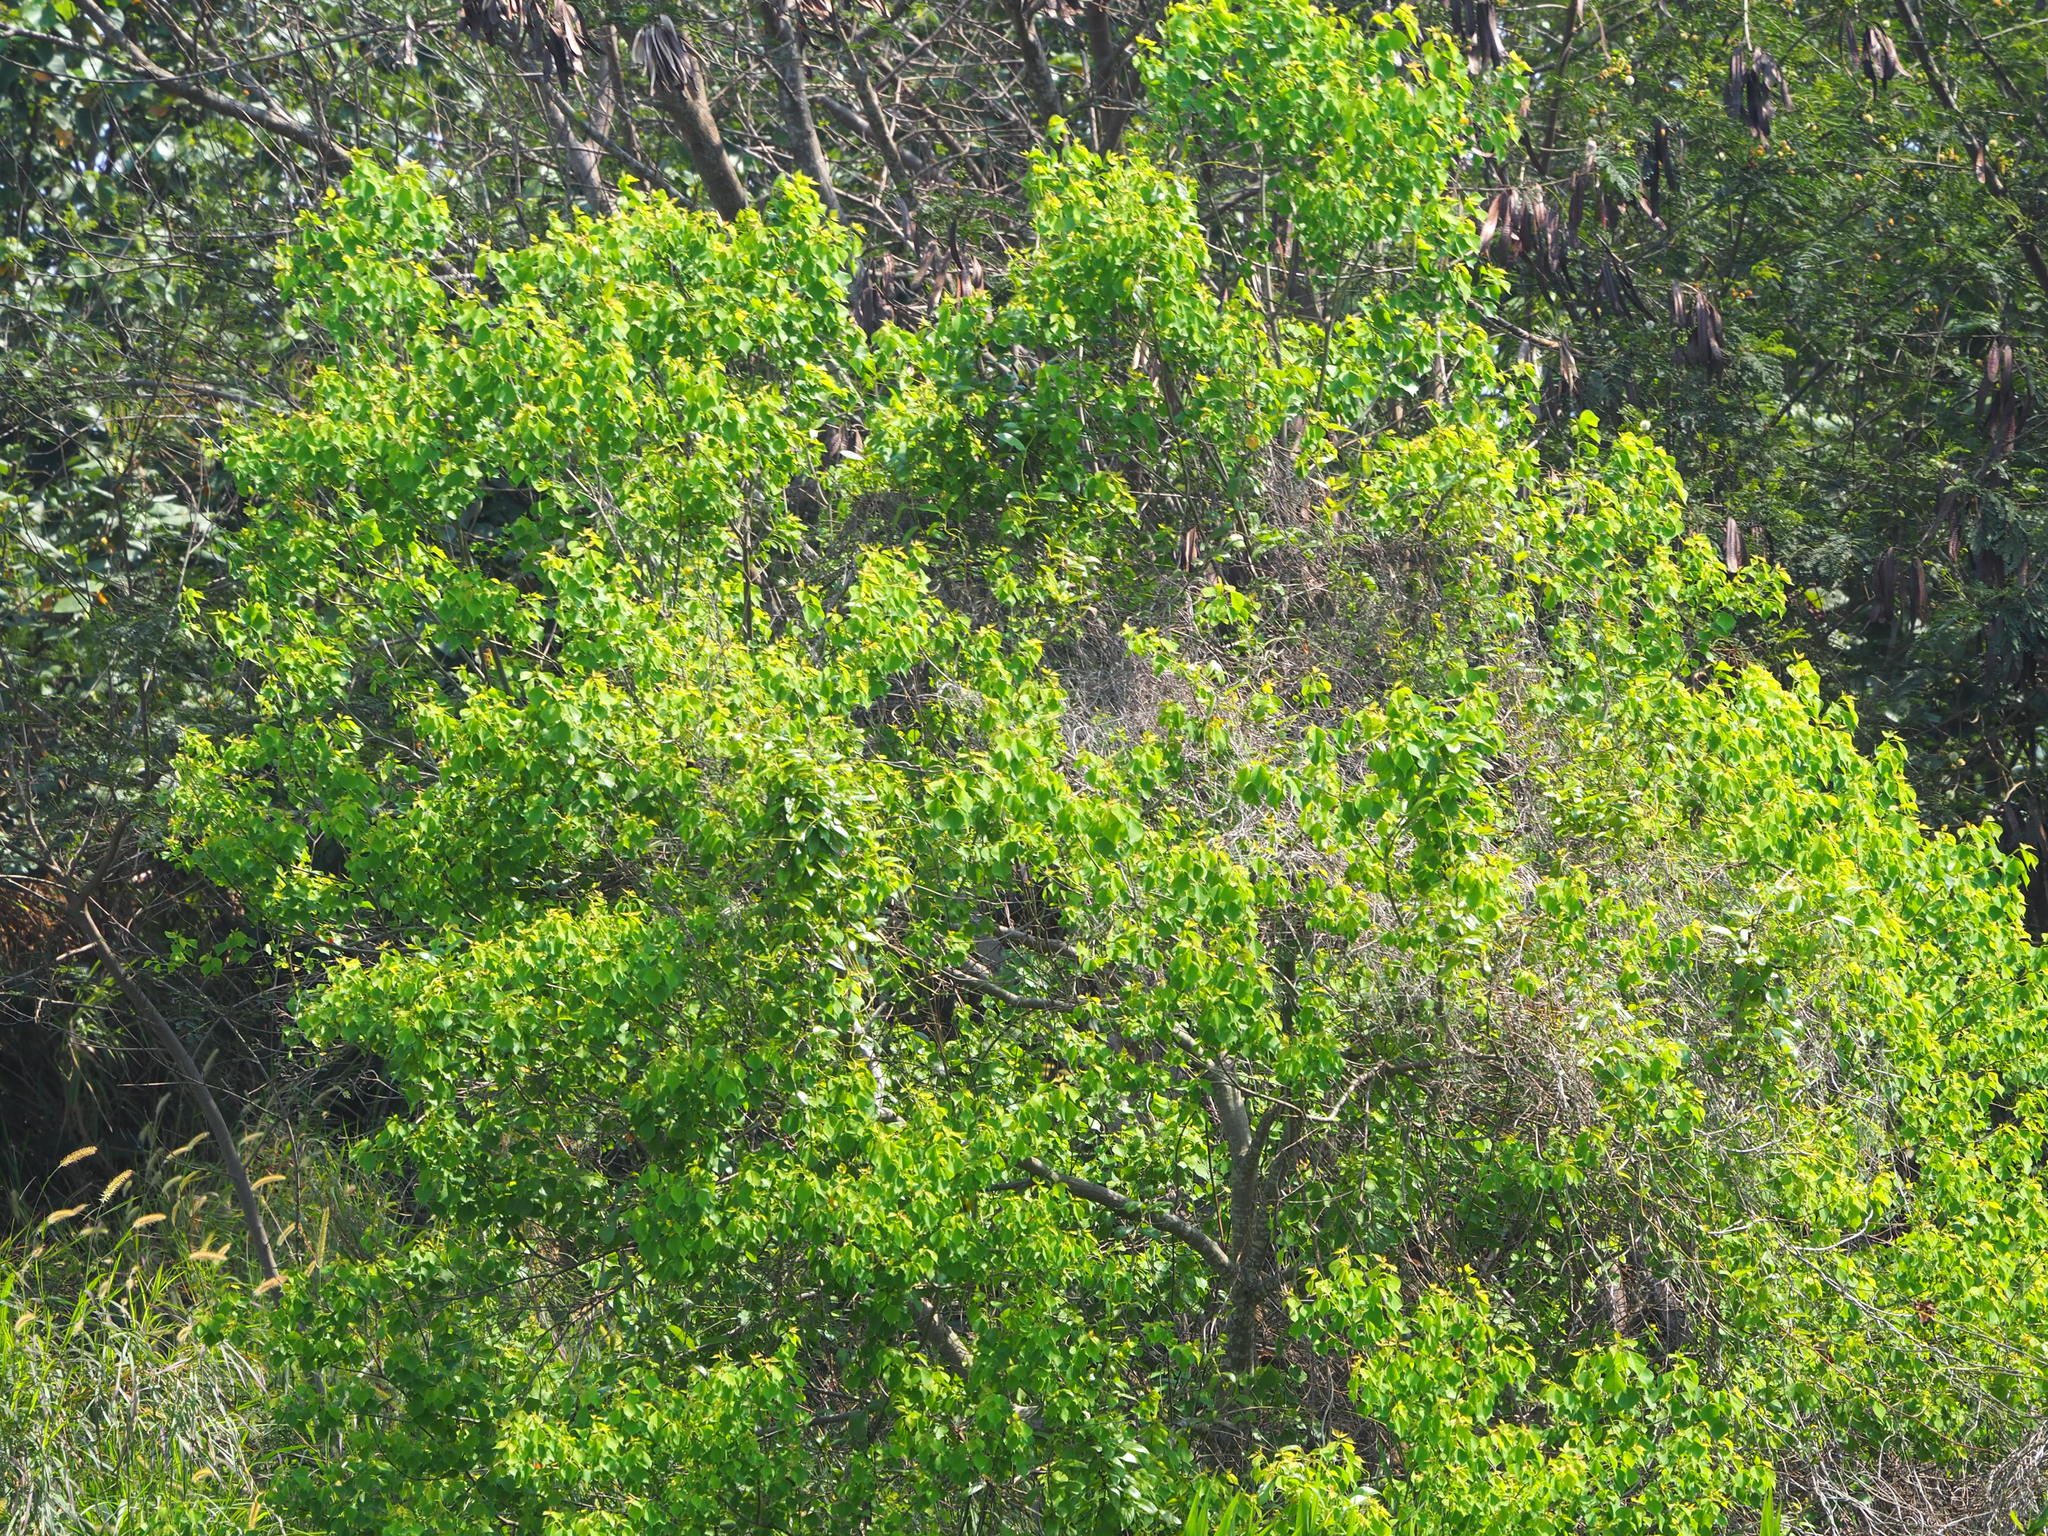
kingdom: Plantae
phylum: Tracheophyta
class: Magnoliopsida
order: Malpighiales
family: Euphorbiaceae
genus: Triadica
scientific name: Triadica sebifera
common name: Chinese tallow
